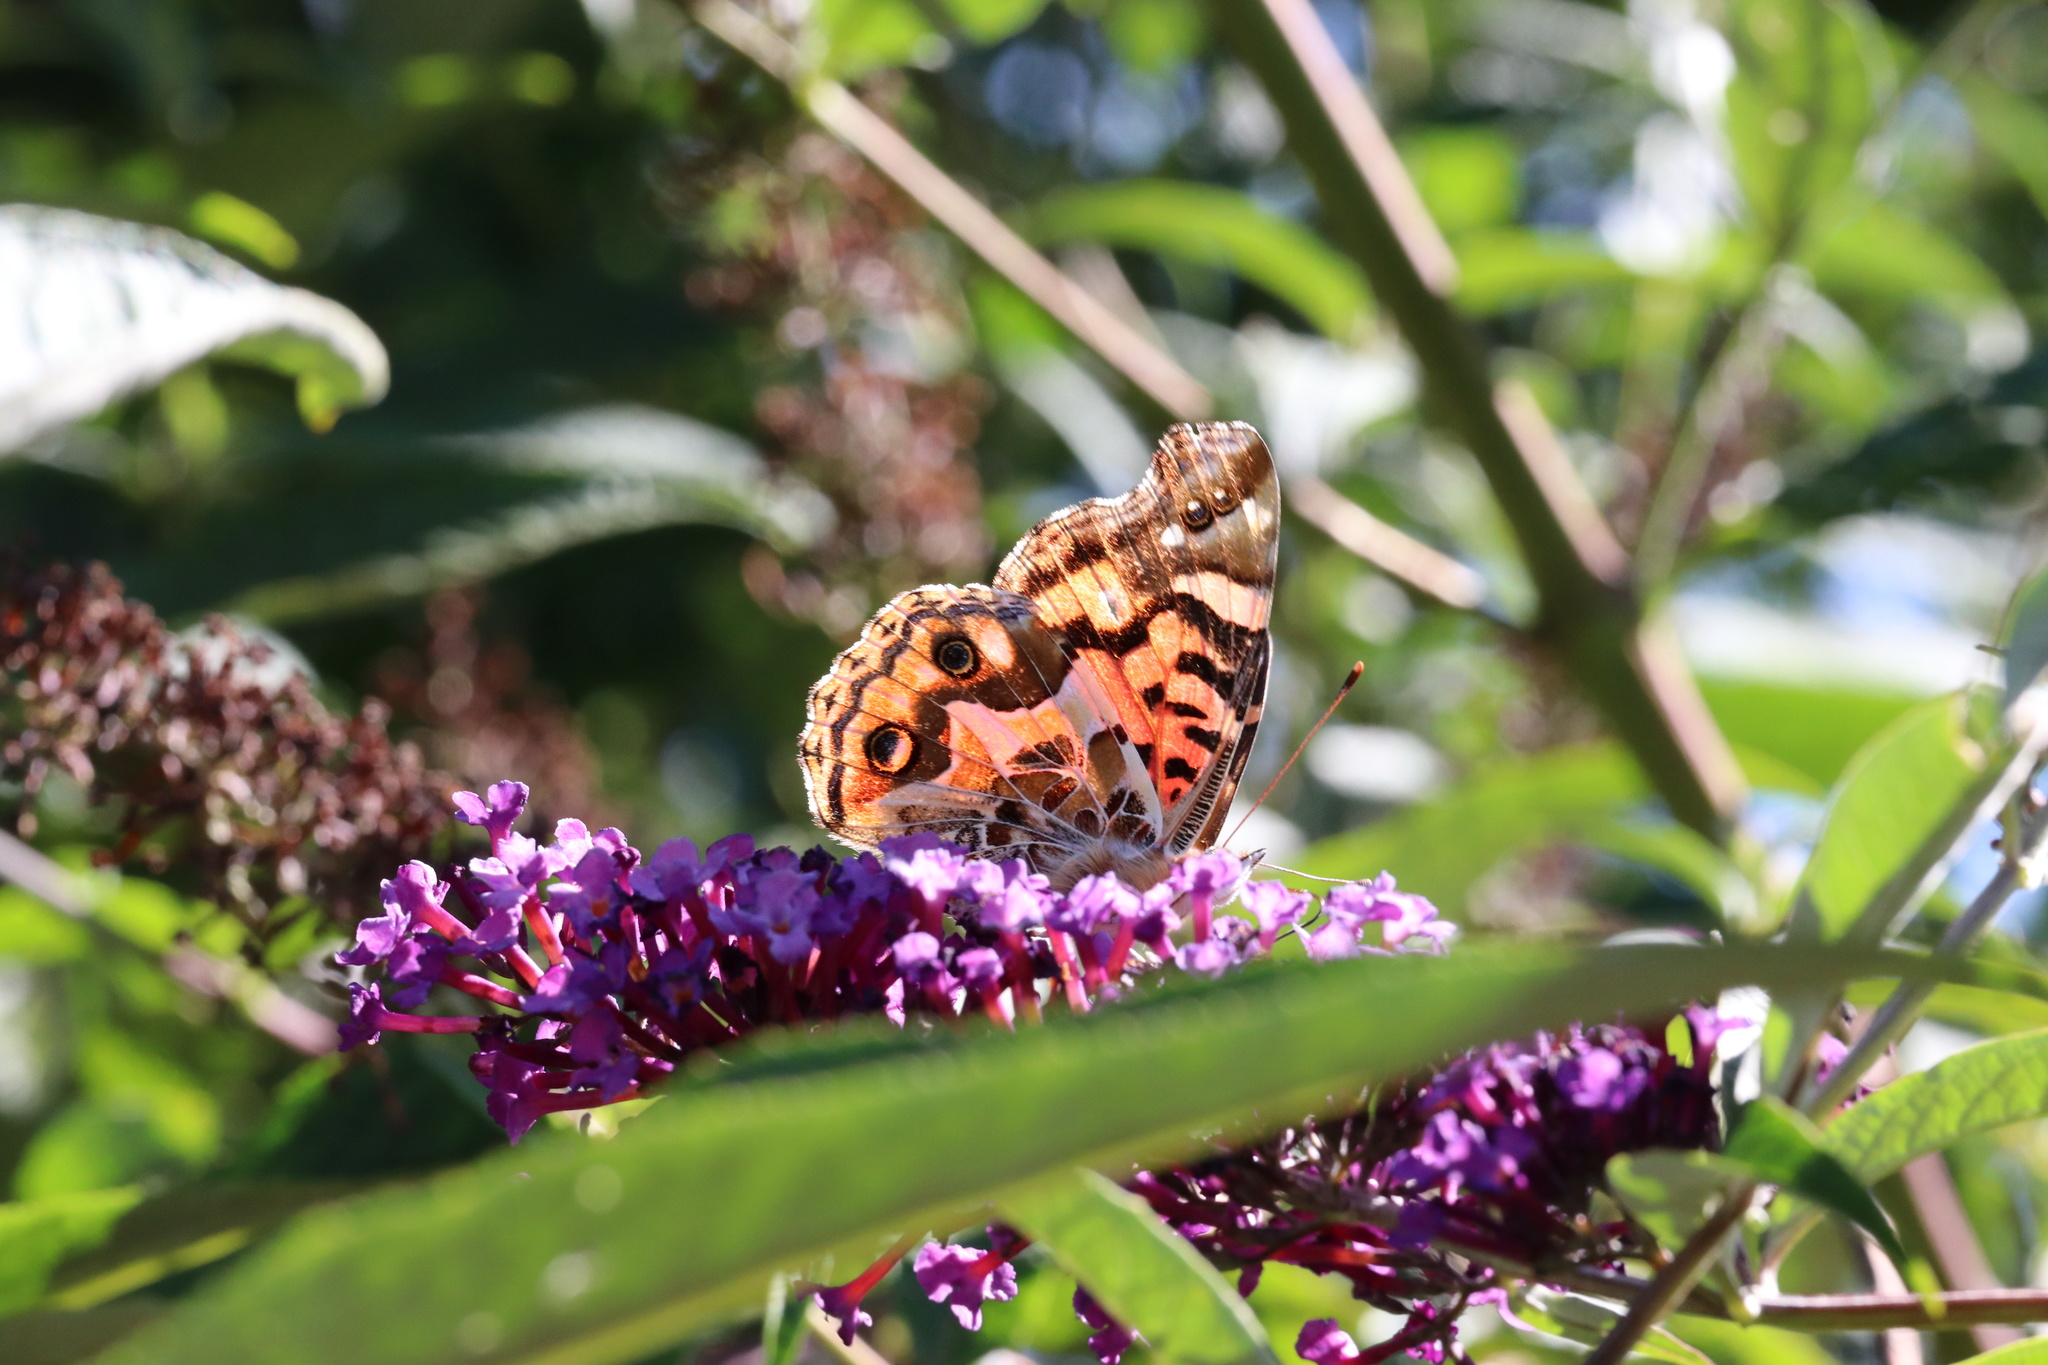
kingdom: Animalia
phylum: Arthropoda
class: Insecta
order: Lepidoptera
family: Nymphalidae
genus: Vanessa
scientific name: Vanessa terpsichore
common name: Chilean lady
